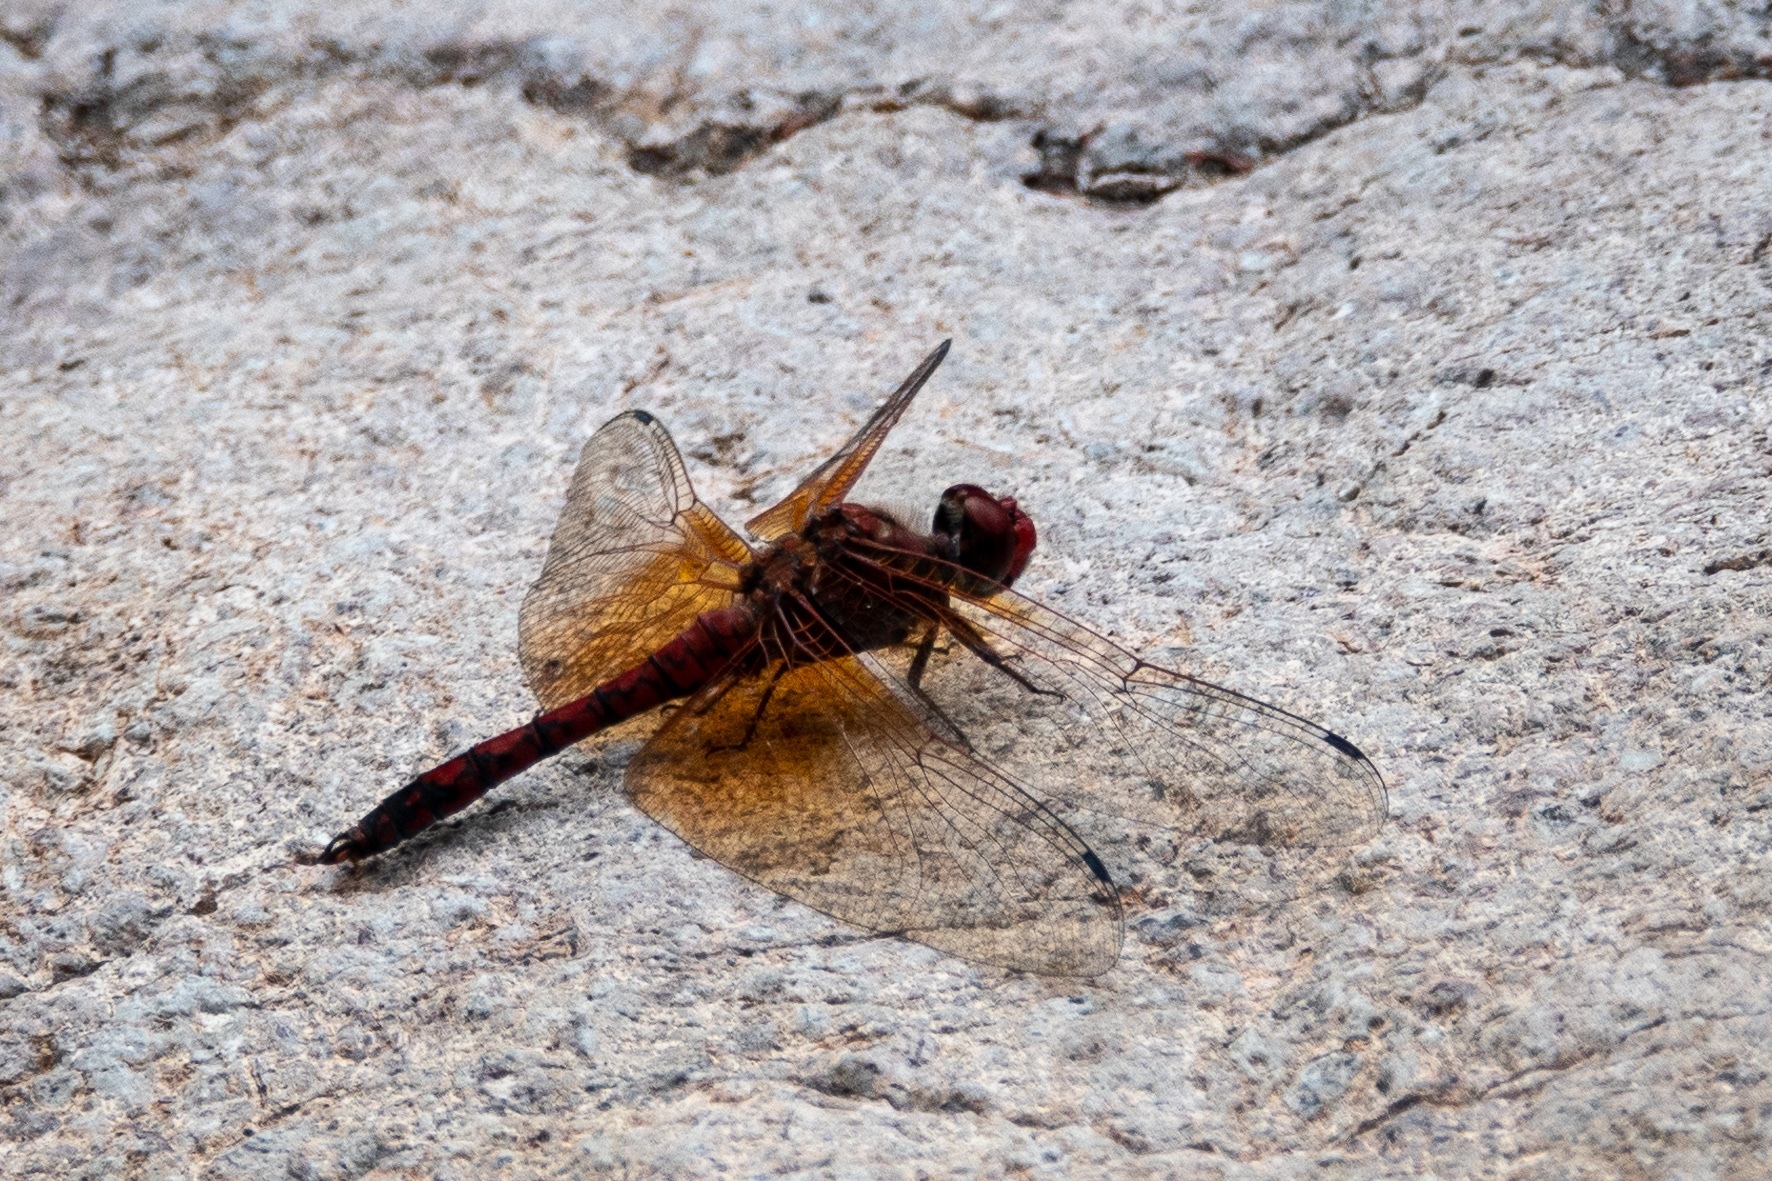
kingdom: Animalia
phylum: Arthropoda
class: Insecta
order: Odonata
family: Libellulidae
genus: Paltothemis
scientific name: Paltothemis lineatipes
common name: Red rock skimmer
